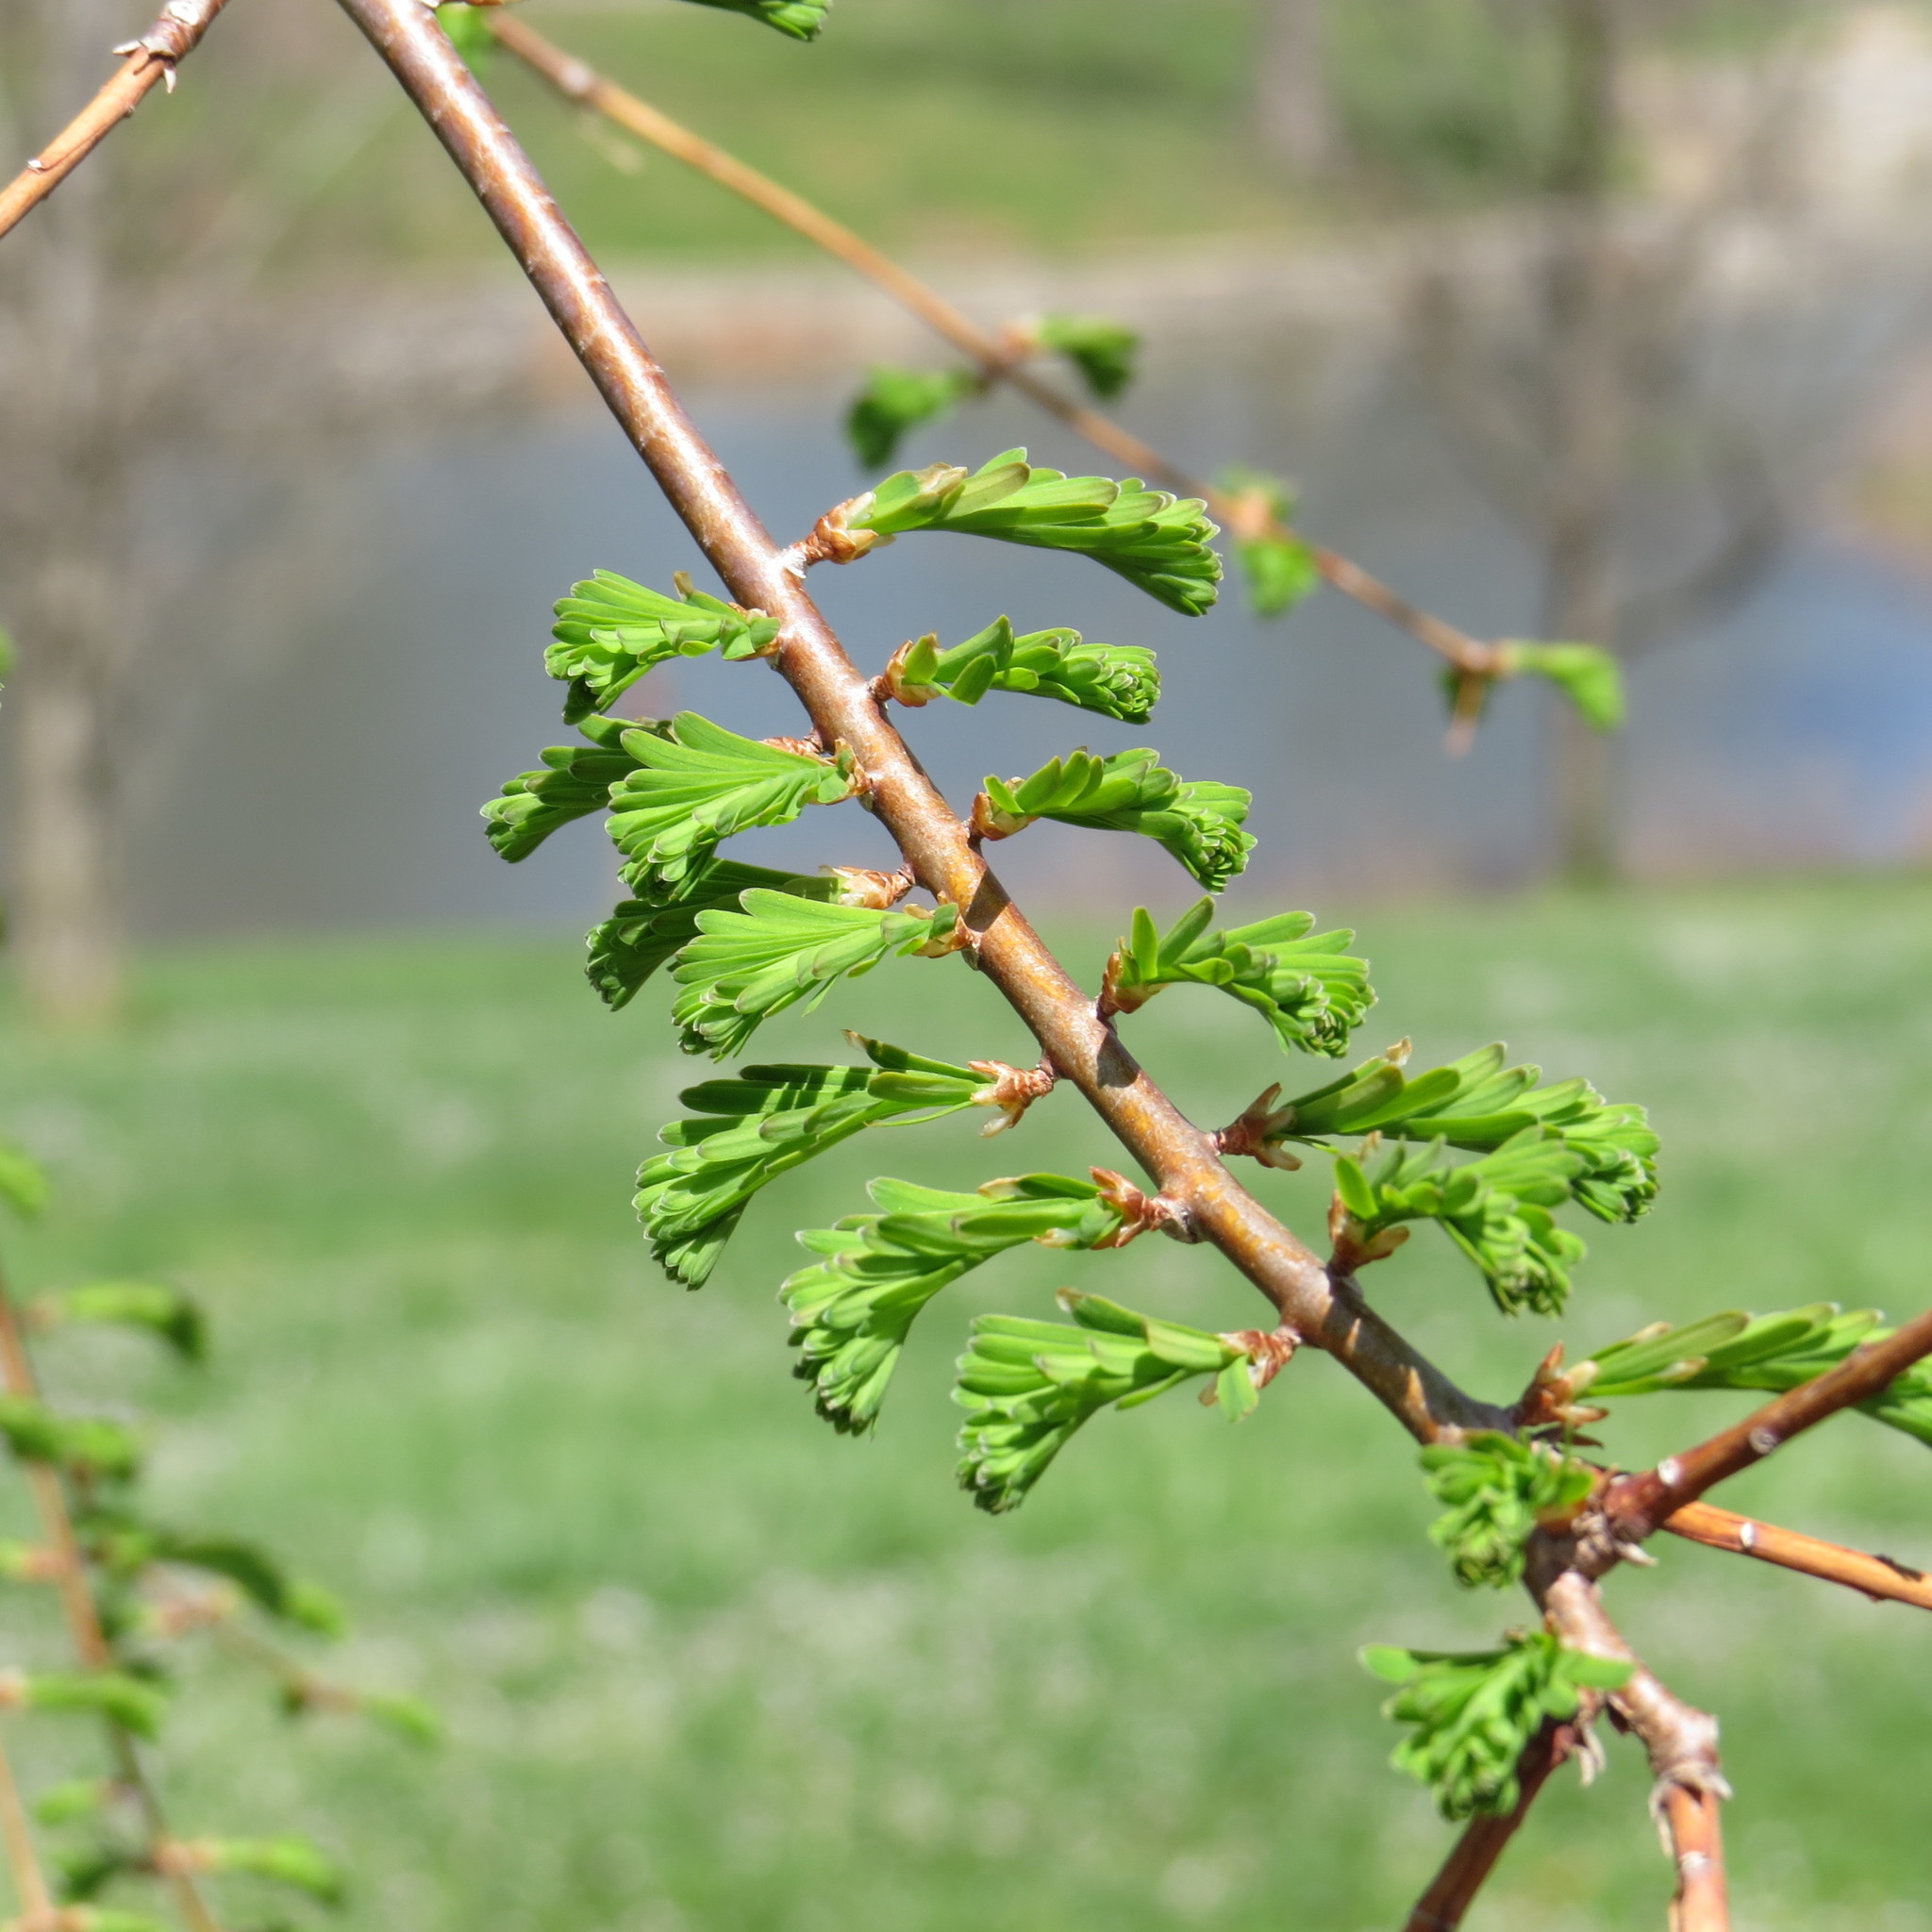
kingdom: Plantae
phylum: Tracheophyta
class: Pinopsida
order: Pinales
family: Cupressaceae
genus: Taxodium
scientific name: Taxodium distichum
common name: Bald cypress
